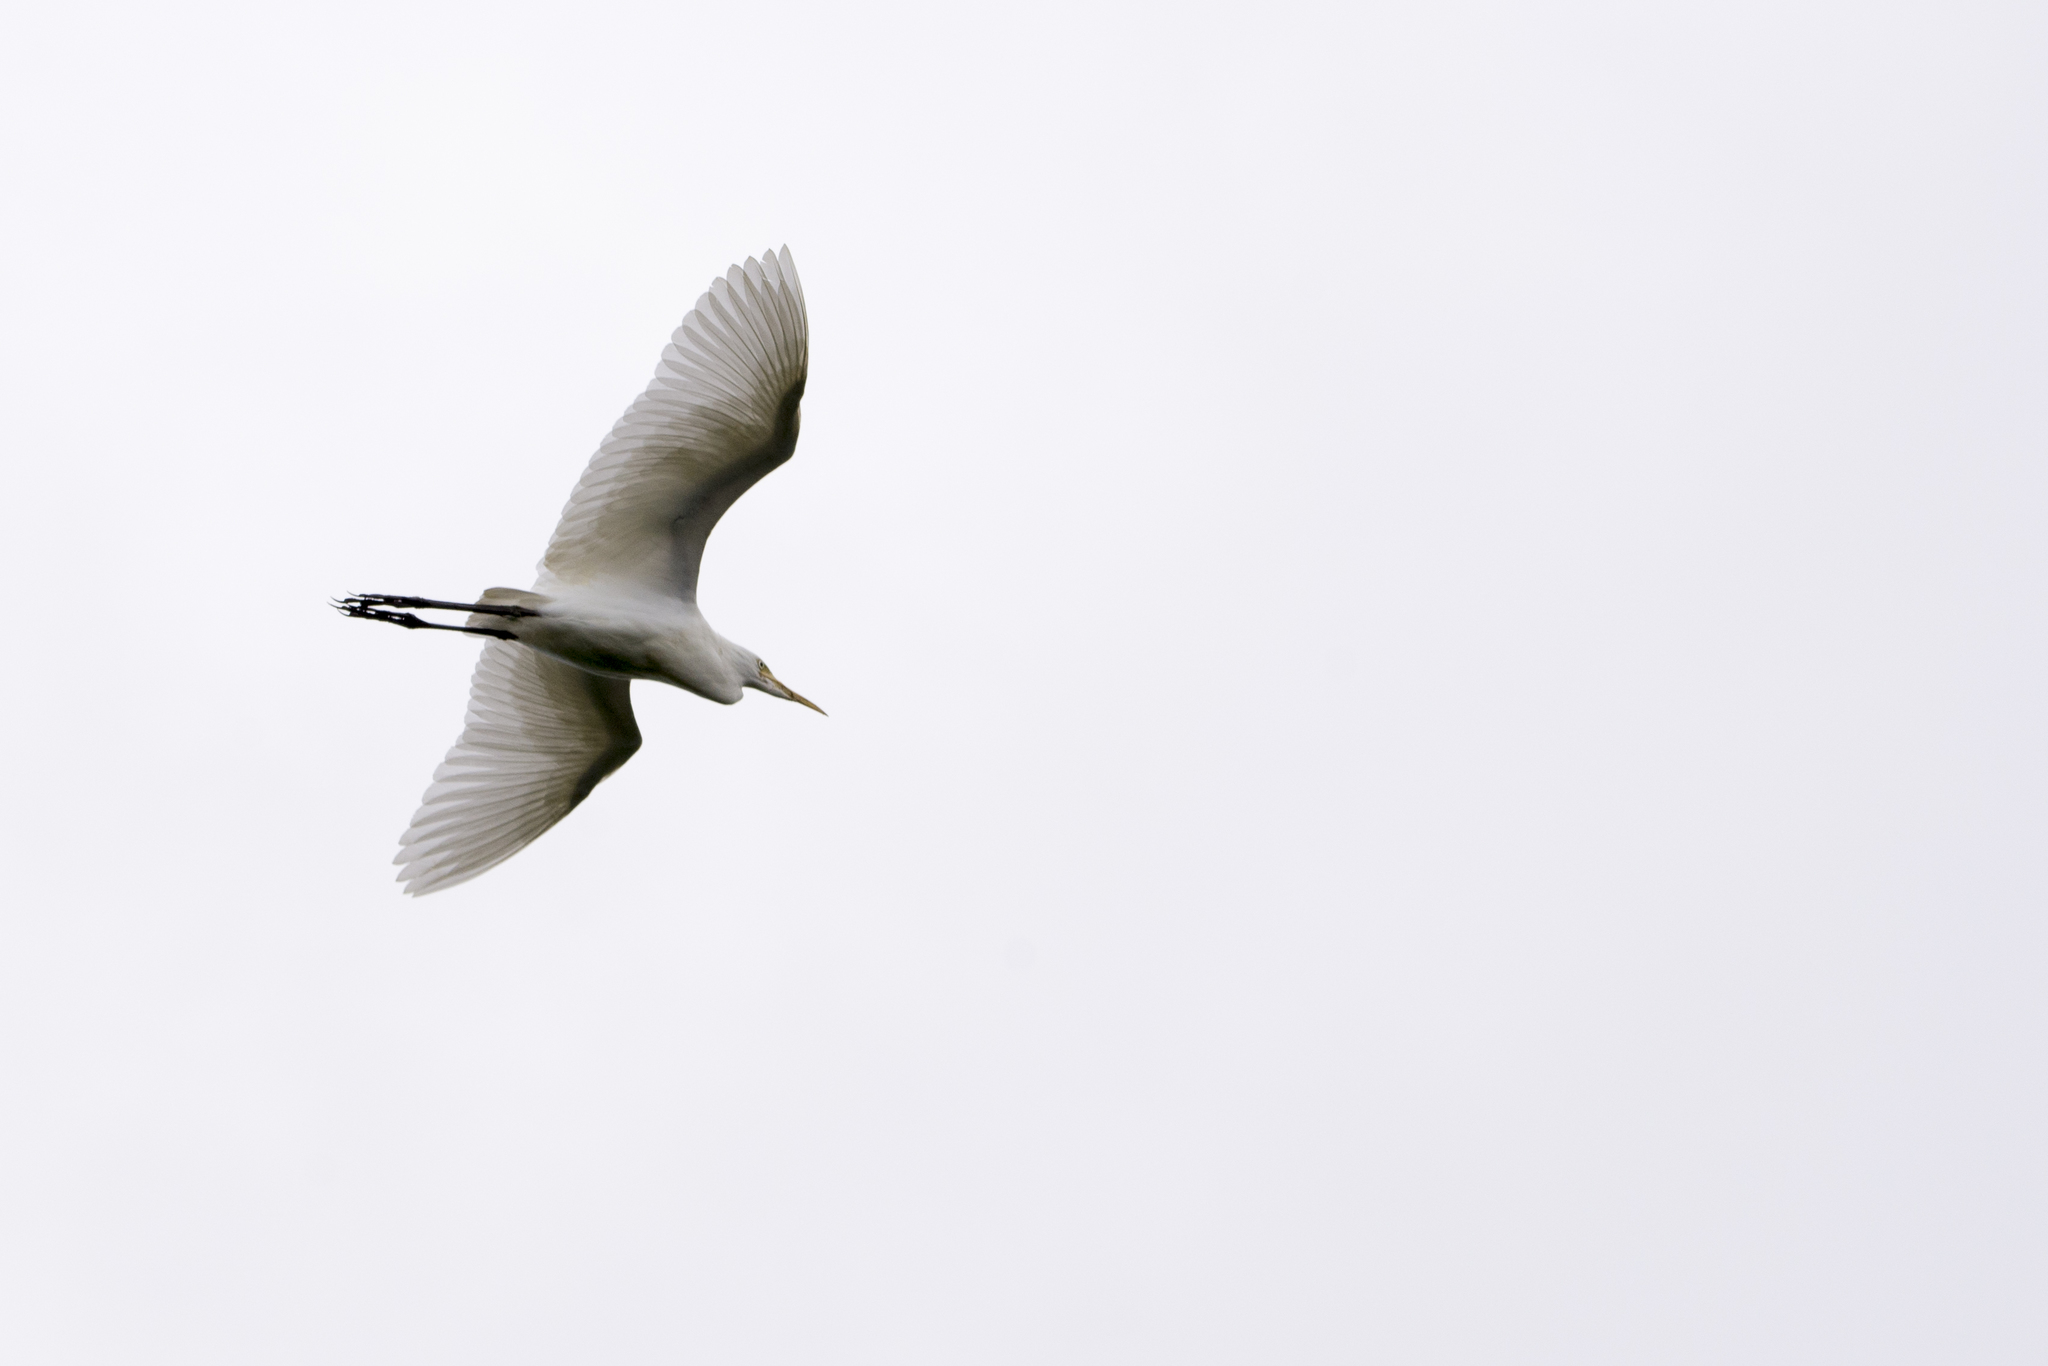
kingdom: Animalia
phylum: Chordata
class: Aves
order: Pelecaniformes
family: Ardeidae
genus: Bubulcus
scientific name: Bubulcus coromandus
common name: Eastern cattle egret
